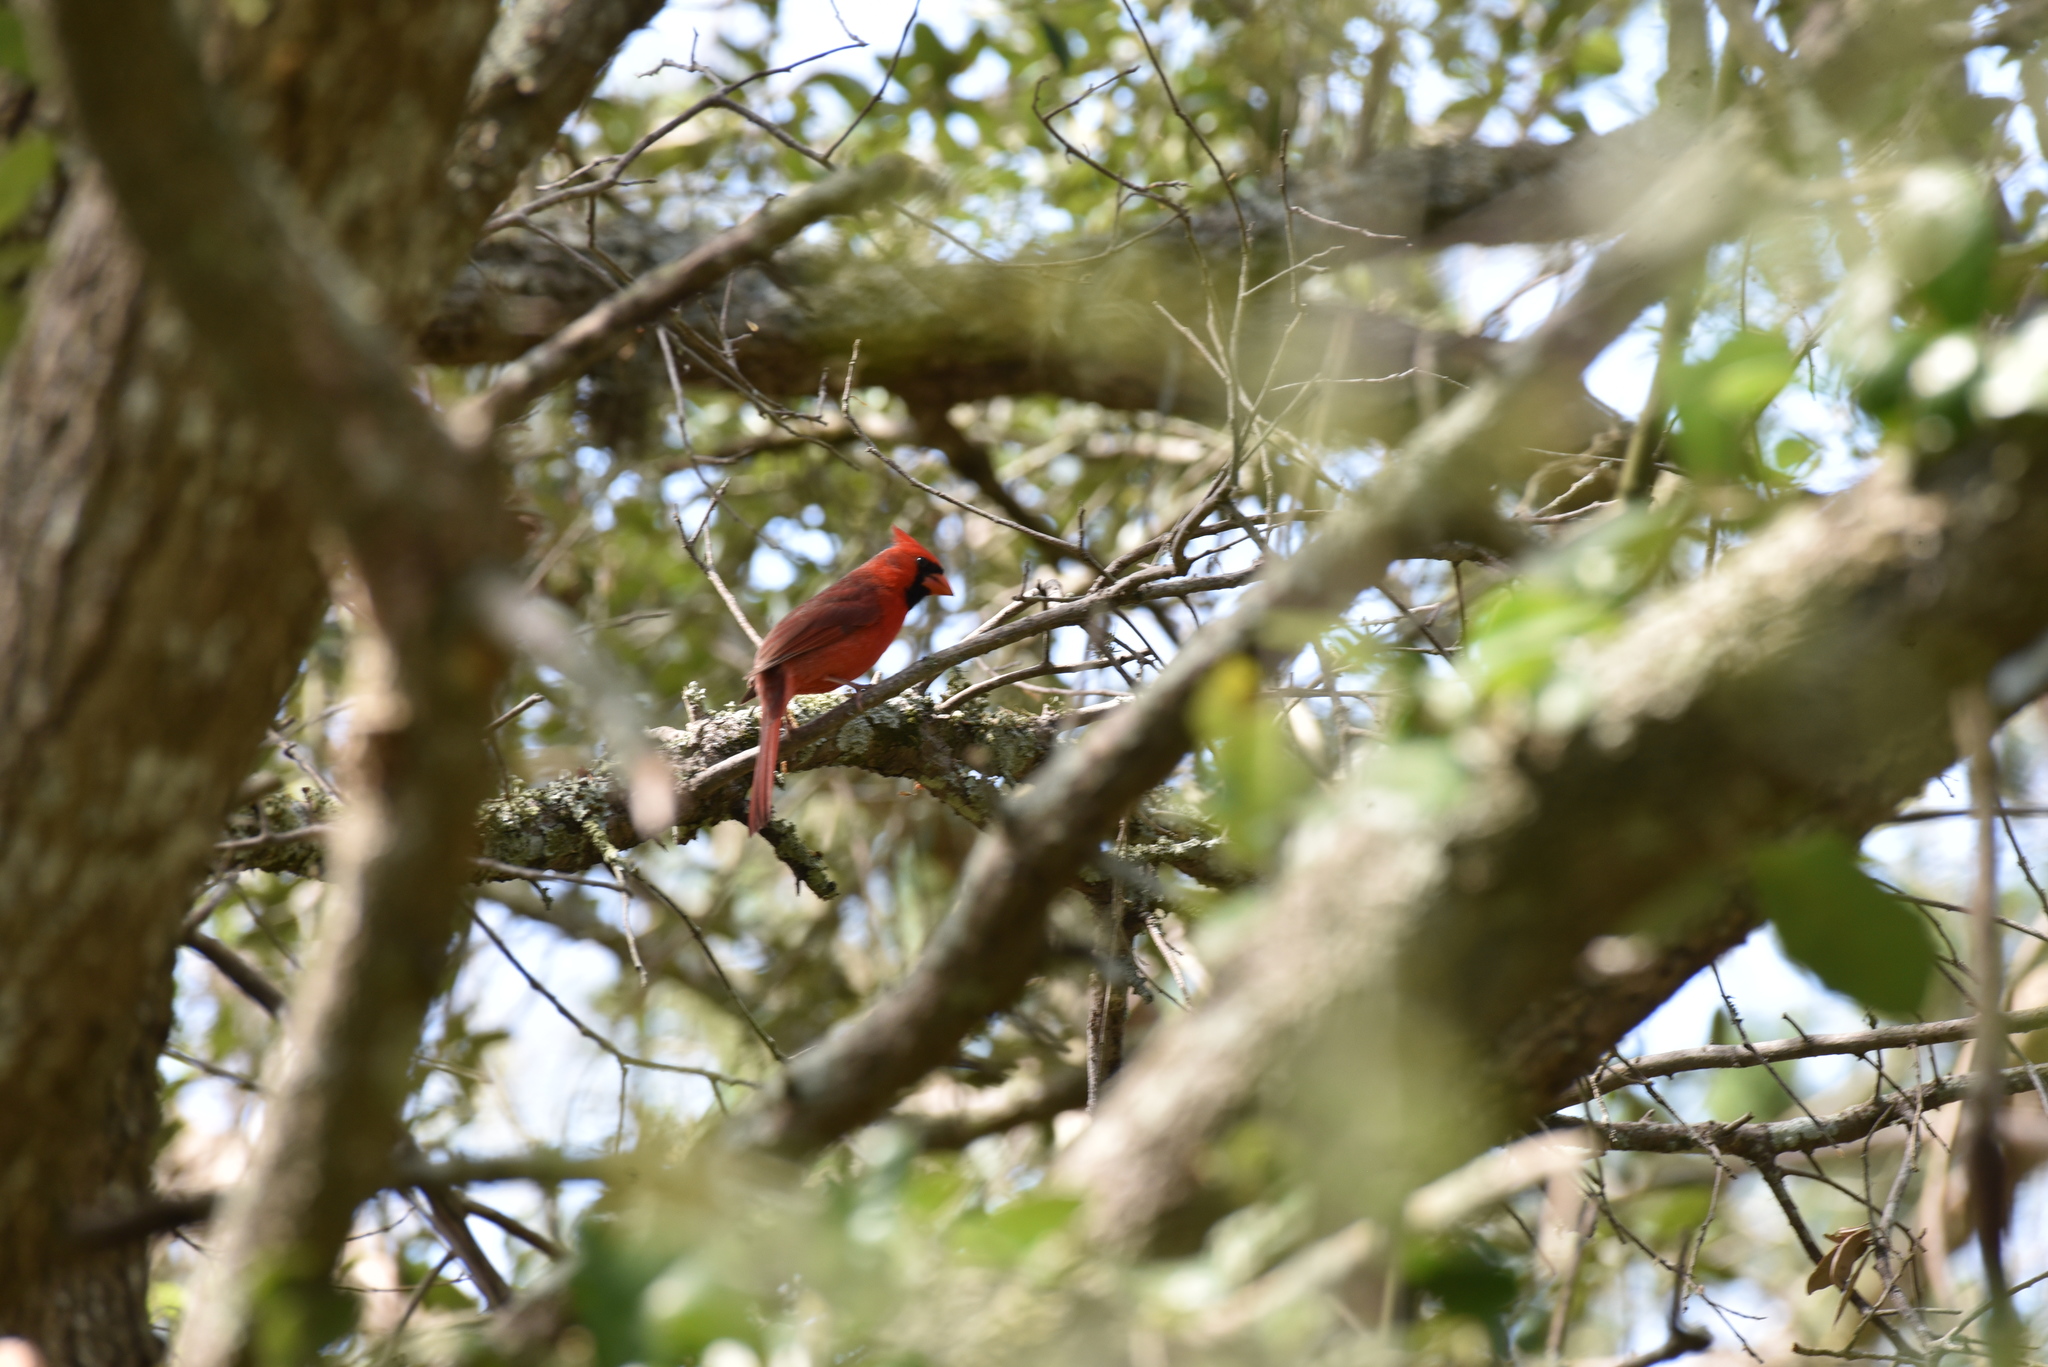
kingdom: Animalia
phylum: Chordata
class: Aves
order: Passeriformes
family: Cardinalidae
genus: Cardinalis
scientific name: Cardinalis cardinalis
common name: Northern cardinal
